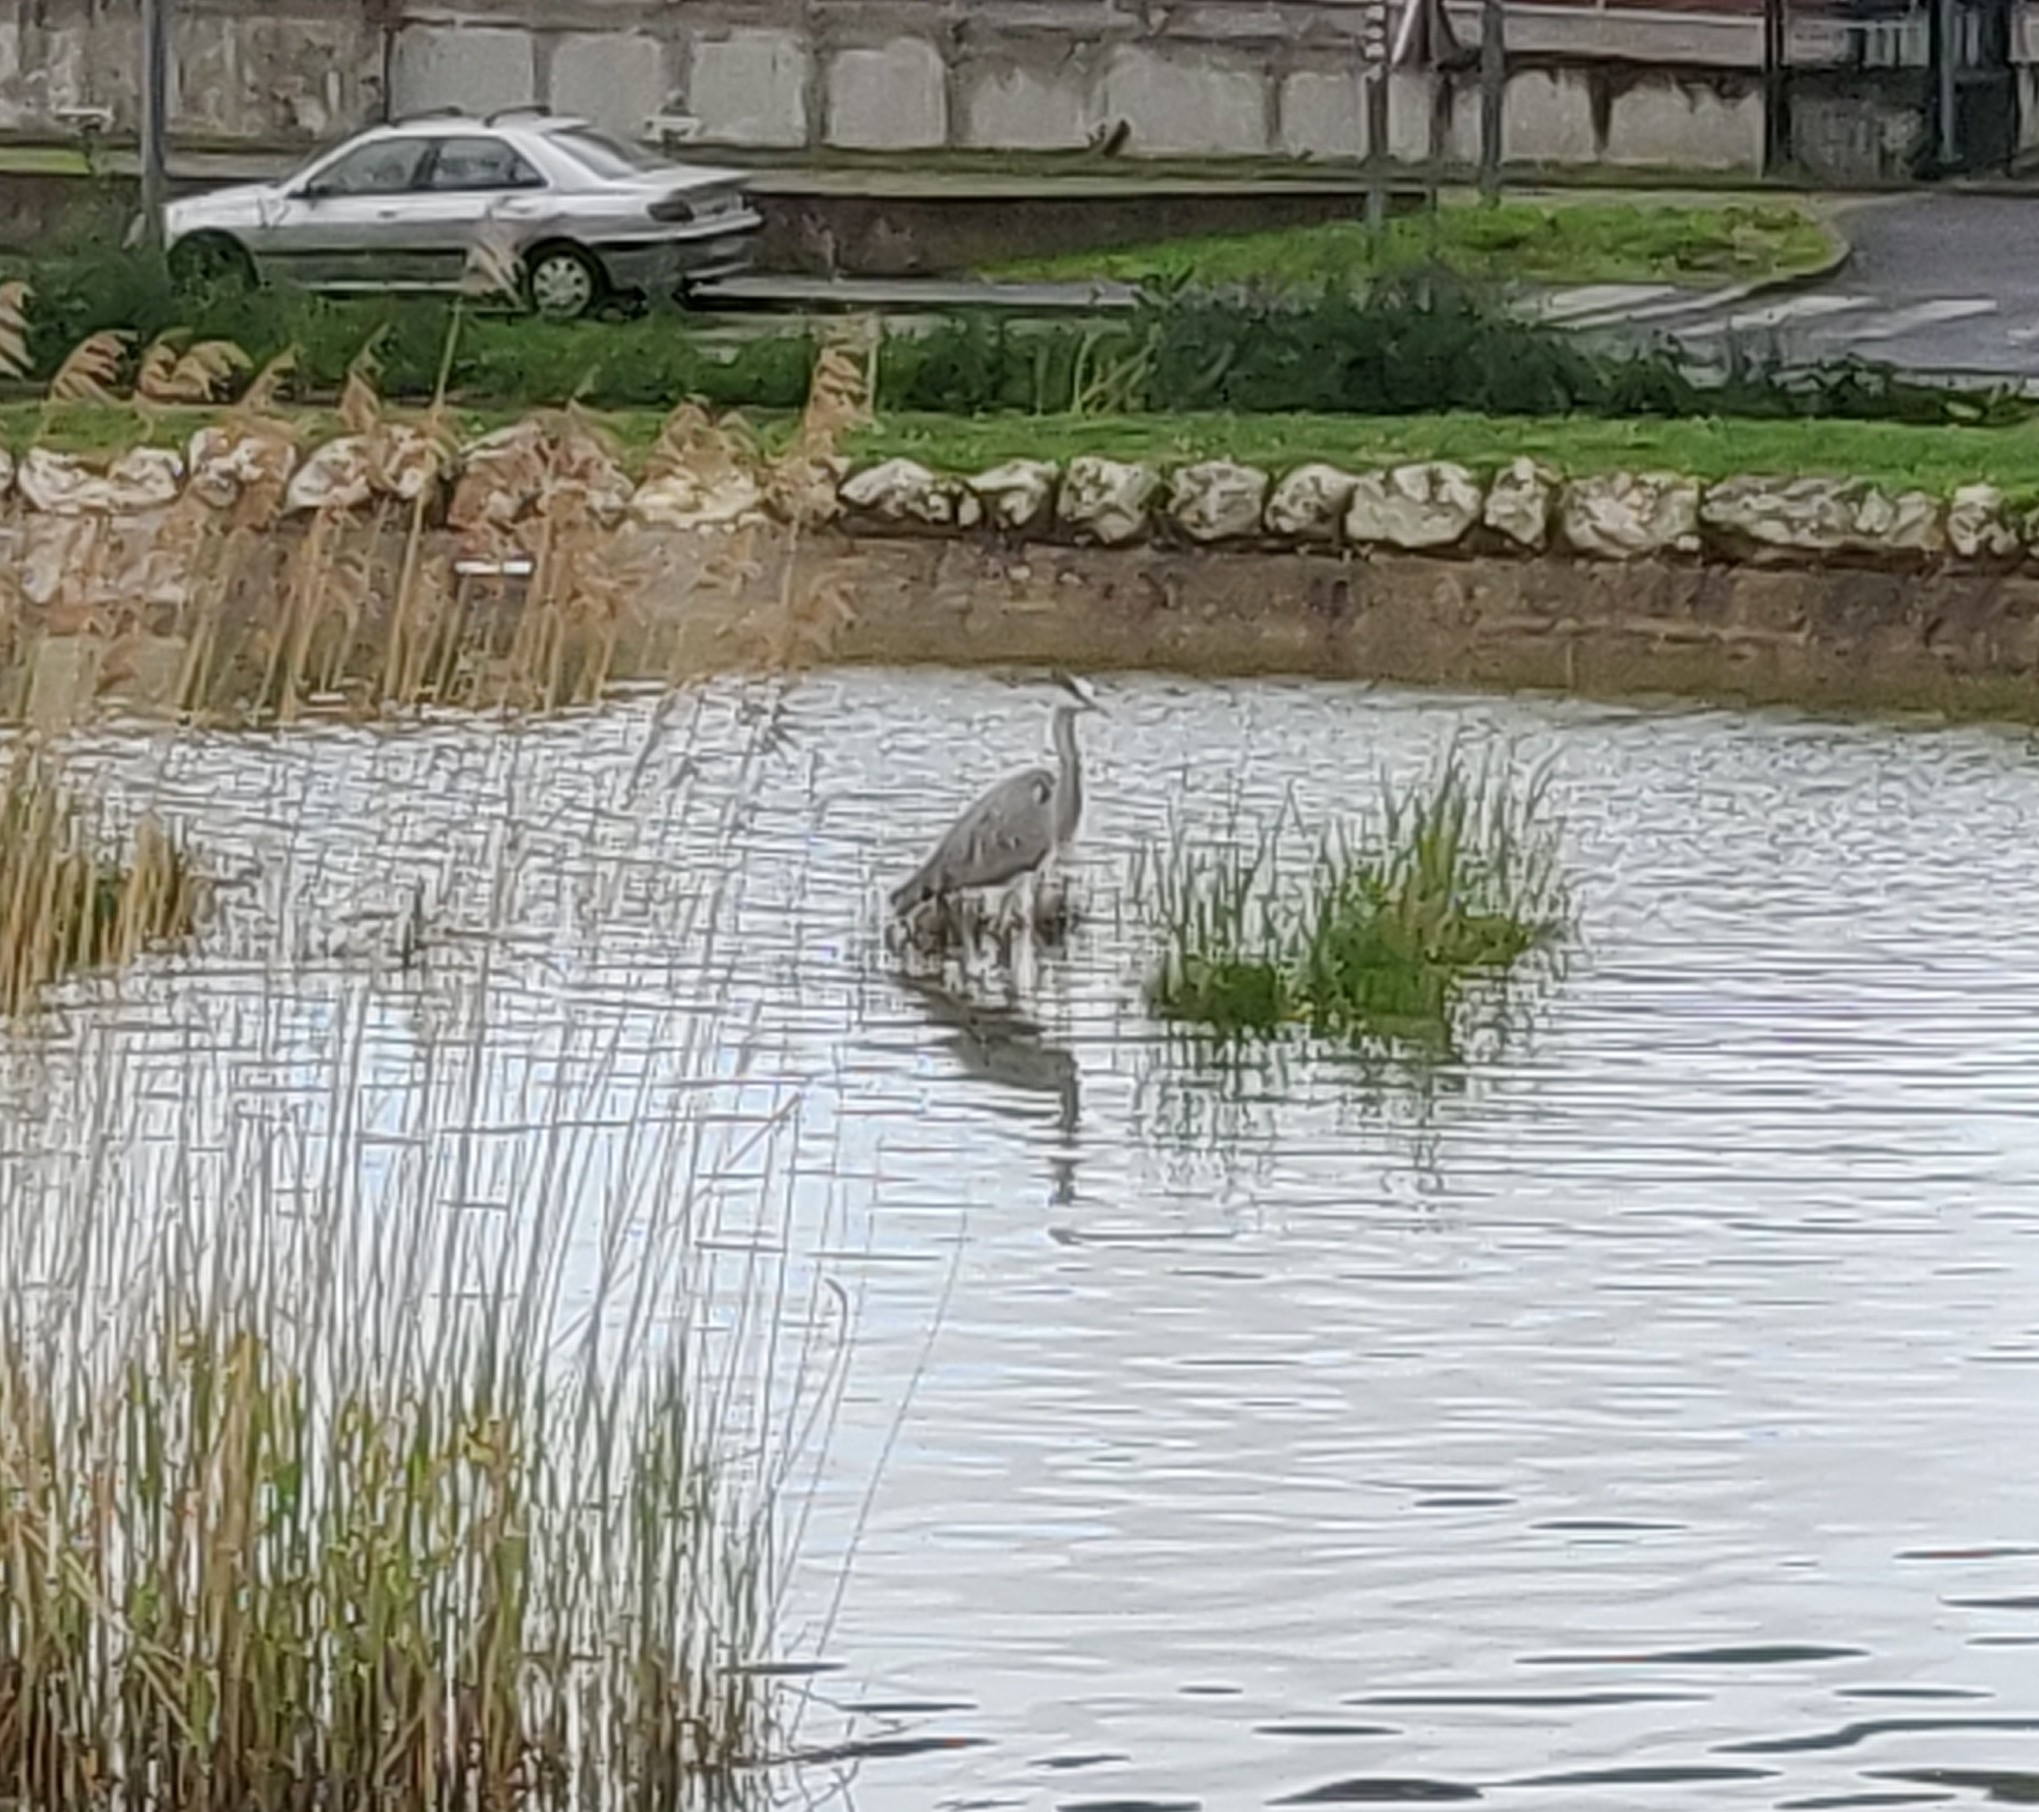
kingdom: Animalia
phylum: Chordata
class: Aves
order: Pelecaniformes
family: Ardeidae
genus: Ardea
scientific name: Ardea cinerea
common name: Grey heron
